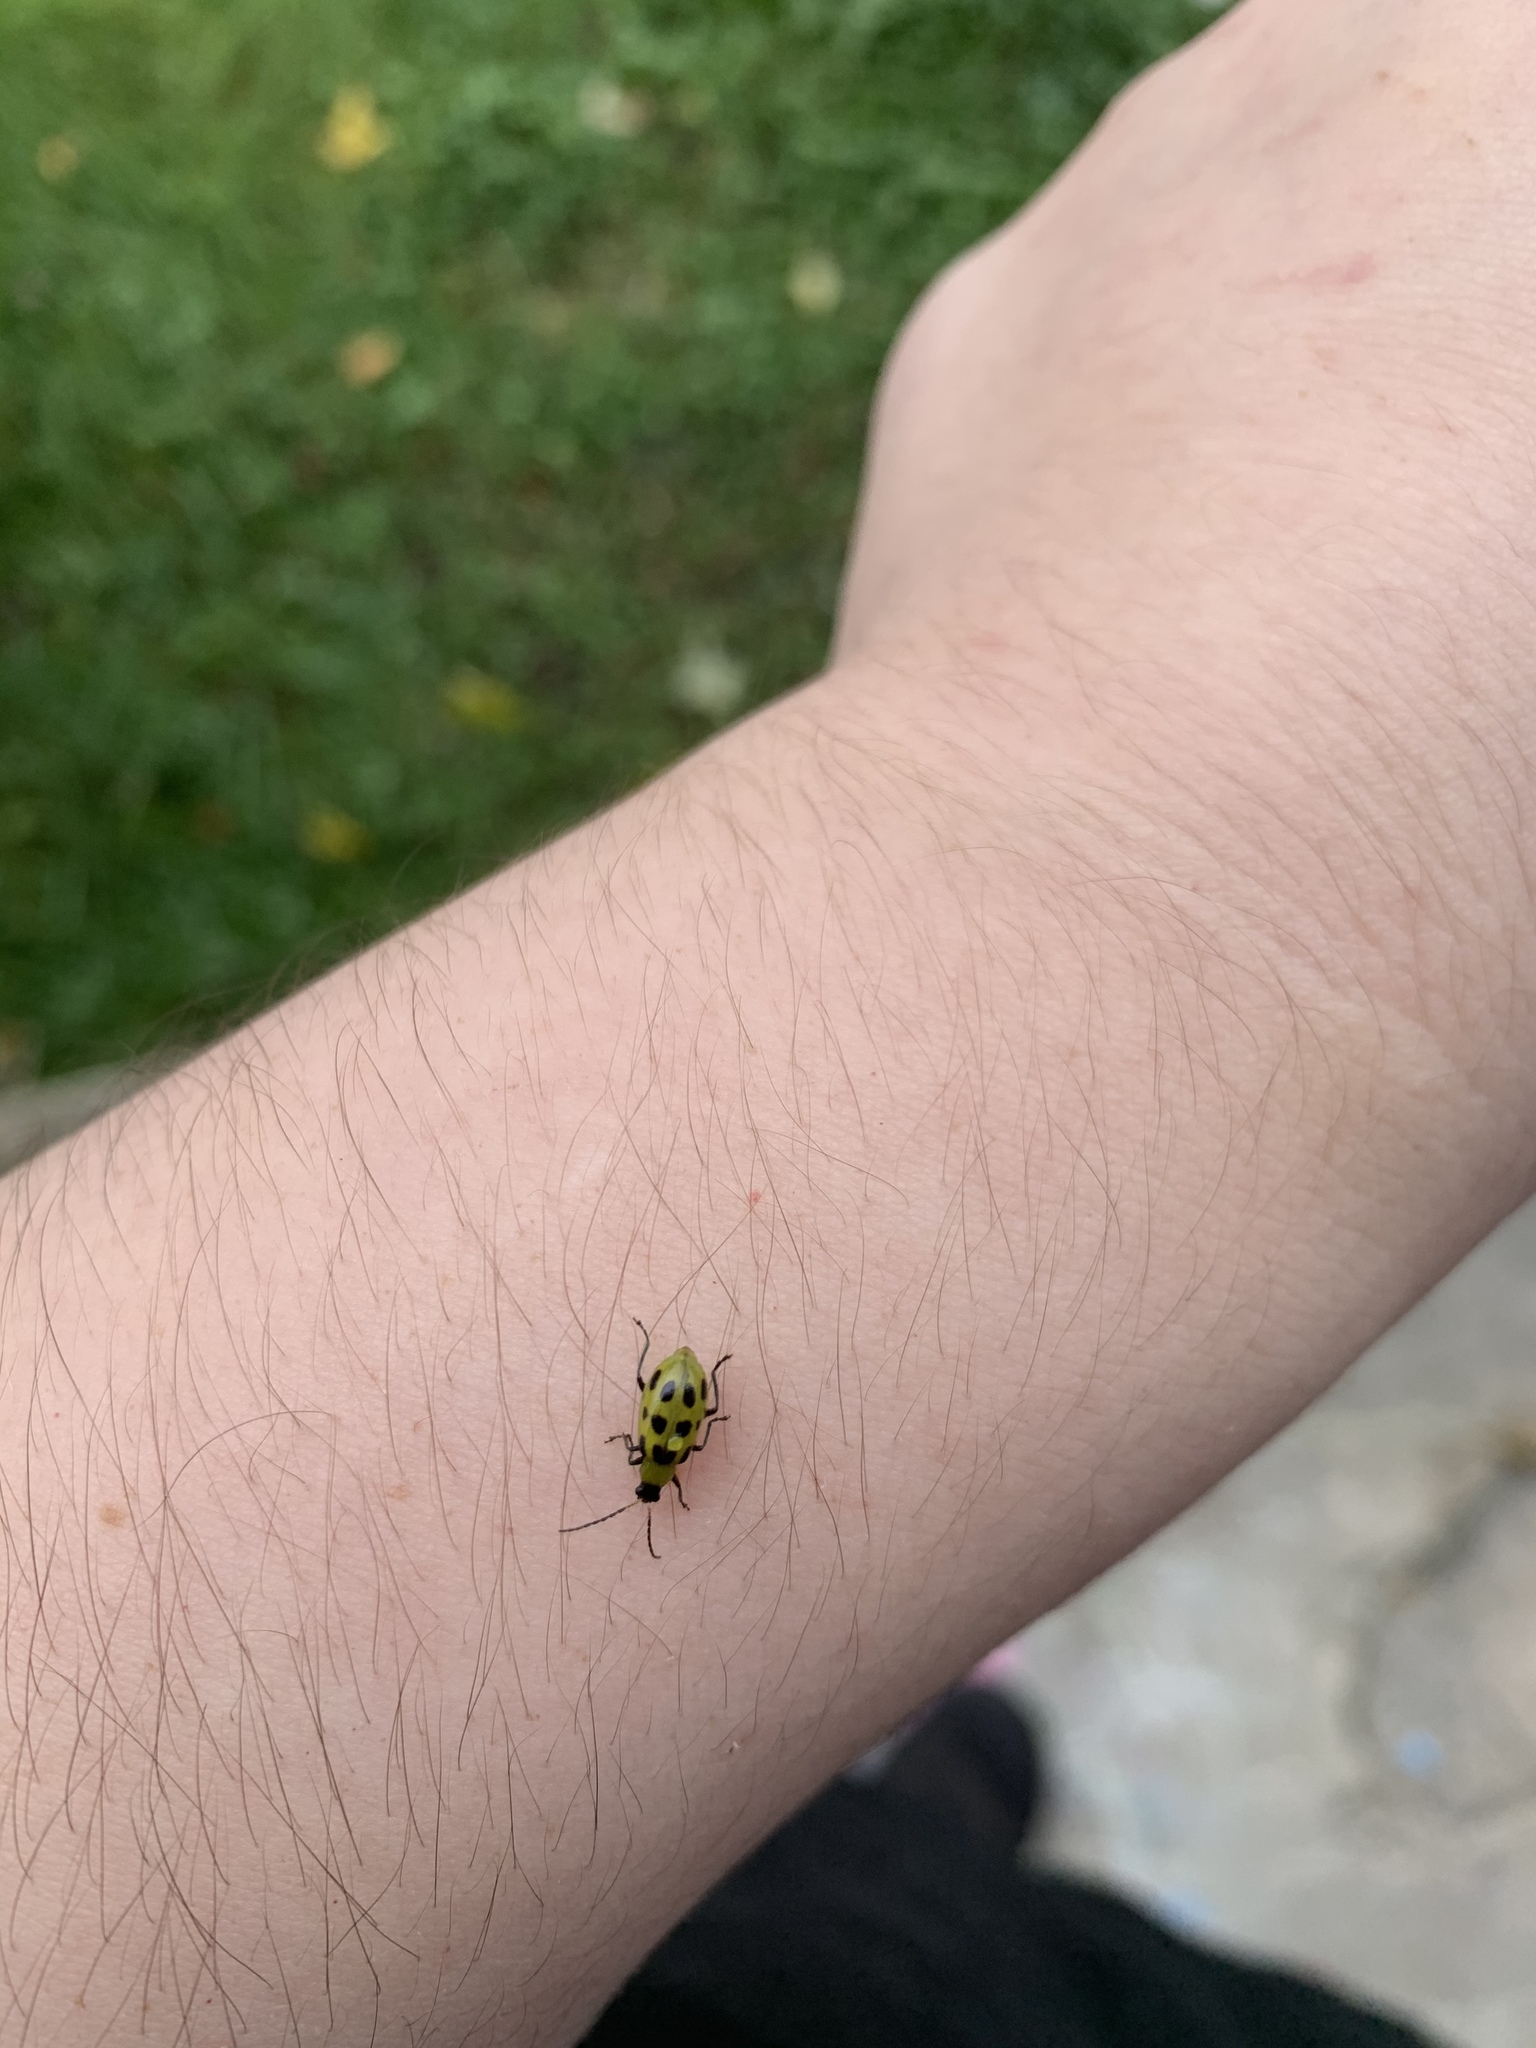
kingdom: Animalia
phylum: Arthropoda
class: Insecta
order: Coleoptera
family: Chrysomelidae
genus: Diabrotica
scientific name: Diabrotica undecimpunctata
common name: Spotted cucumber beetle
